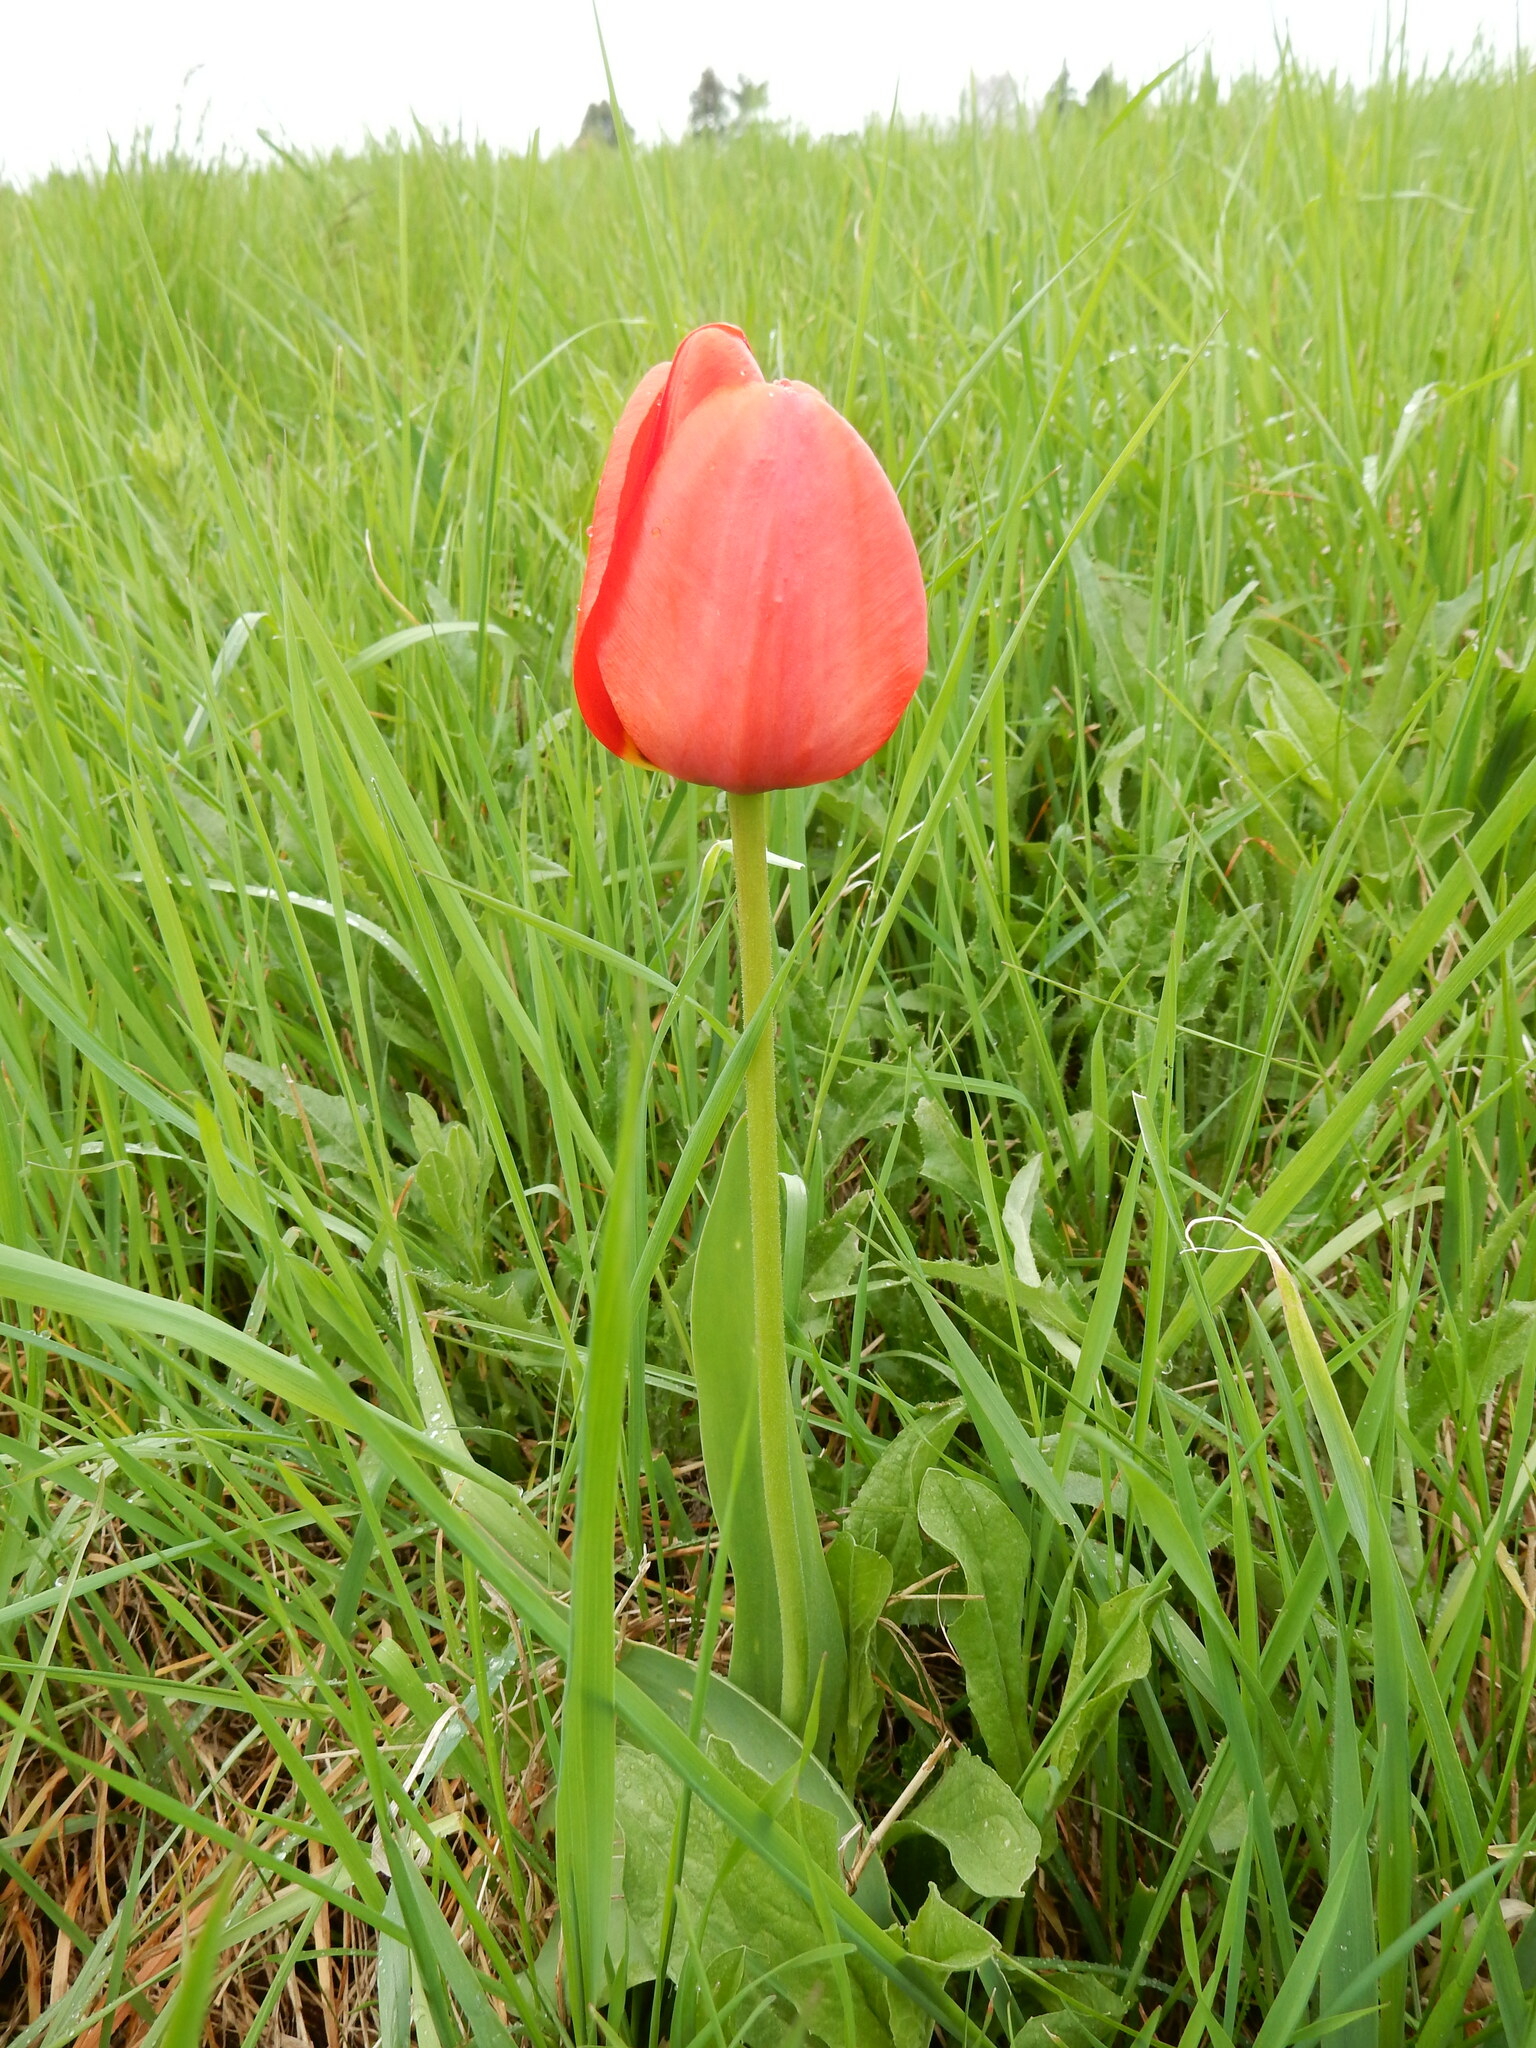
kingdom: Plantae
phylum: Tracheophyta
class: Liliopsida
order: Liliales
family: Liliaceae
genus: Tulipa
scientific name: Tulipa gesneriana
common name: Garden tulip
